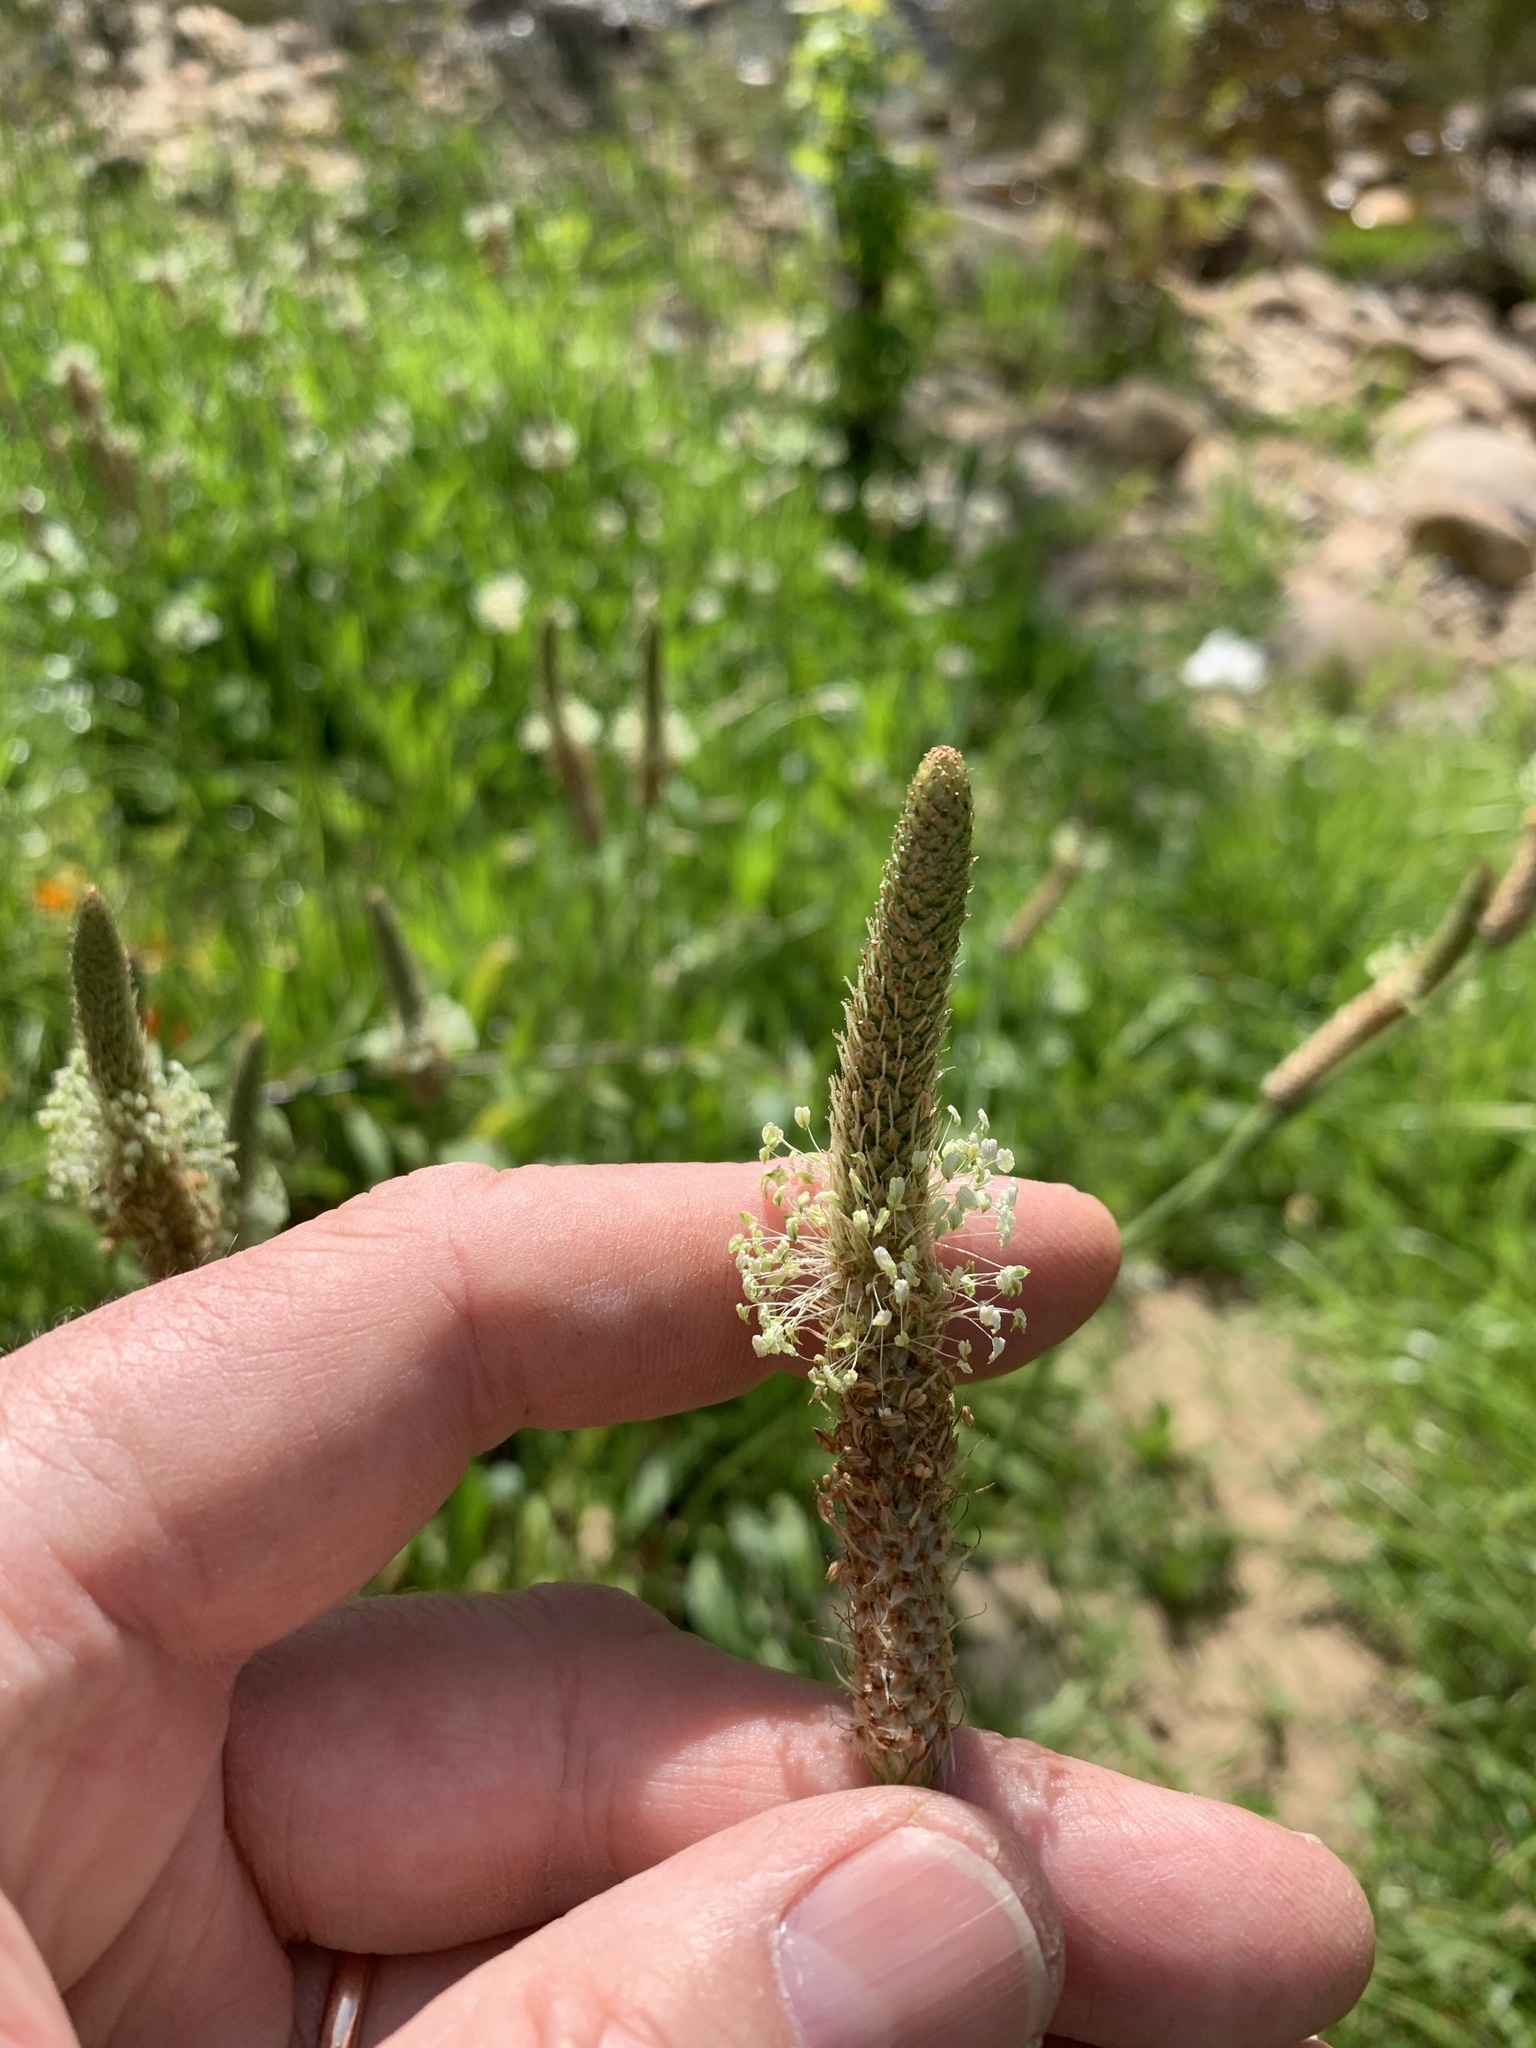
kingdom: Plantae
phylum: Tracheophyta
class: Magnoliopsida
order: Lamiales
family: Plantaginaceae
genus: Plantago
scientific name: Plantago lanceolata
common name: Ribwort plantain
